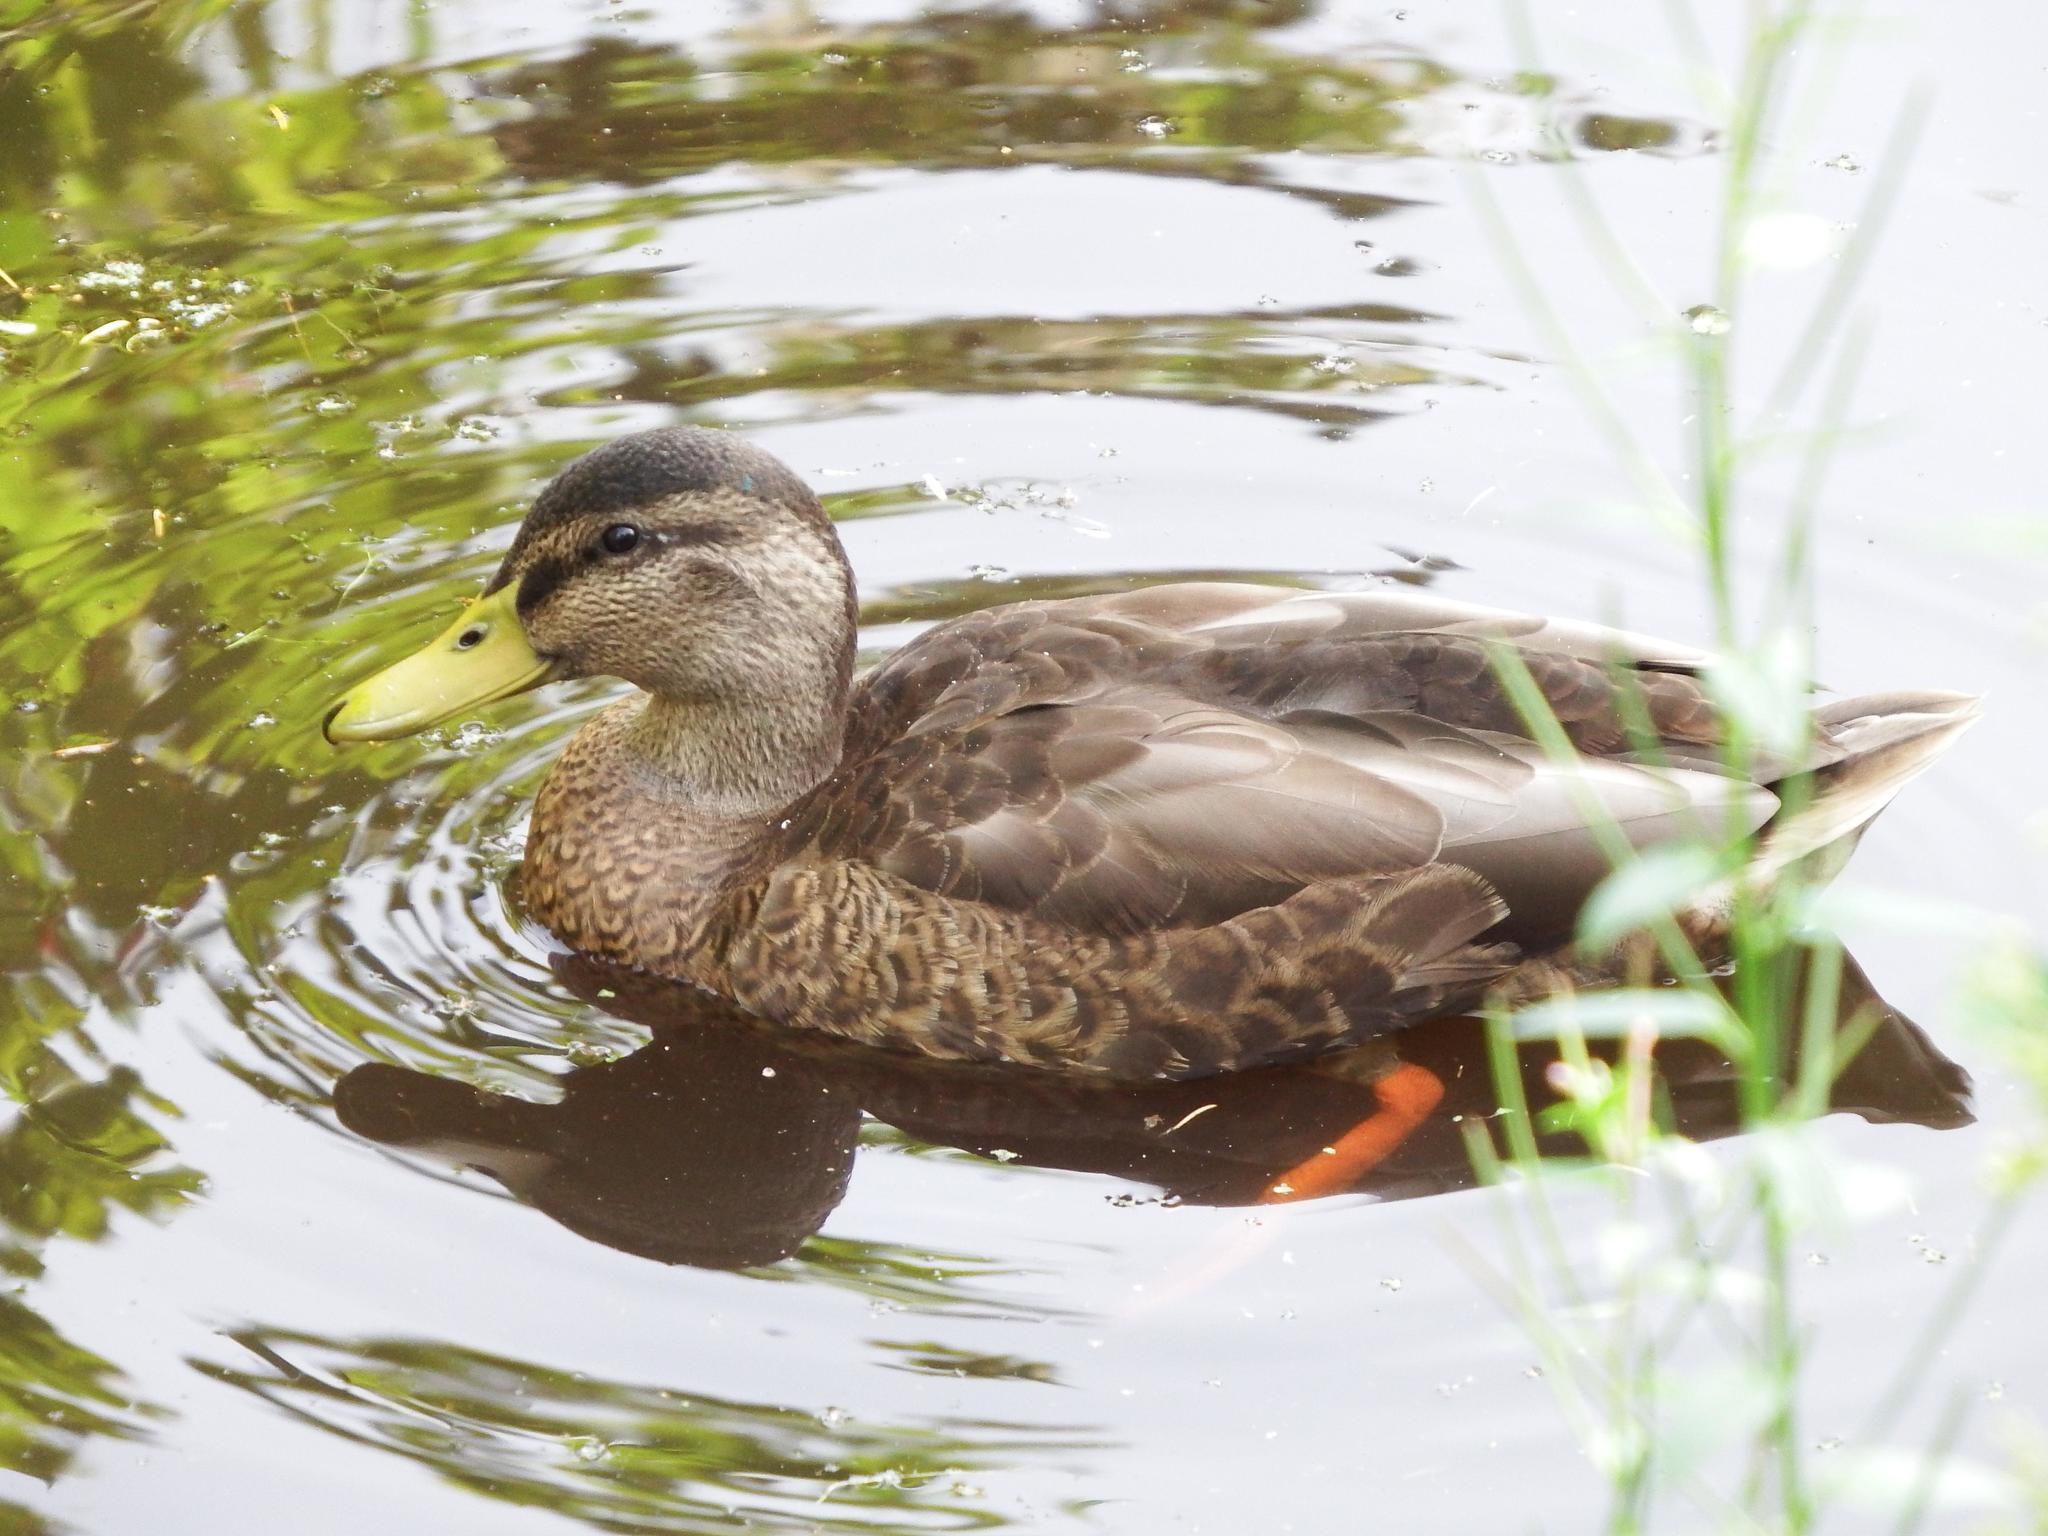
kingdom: Animalia
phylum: Chordata
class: Aves
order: Anseriformes
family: Anatidae
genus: Anas
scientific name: Anas platyrhynchos
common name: Mallard
